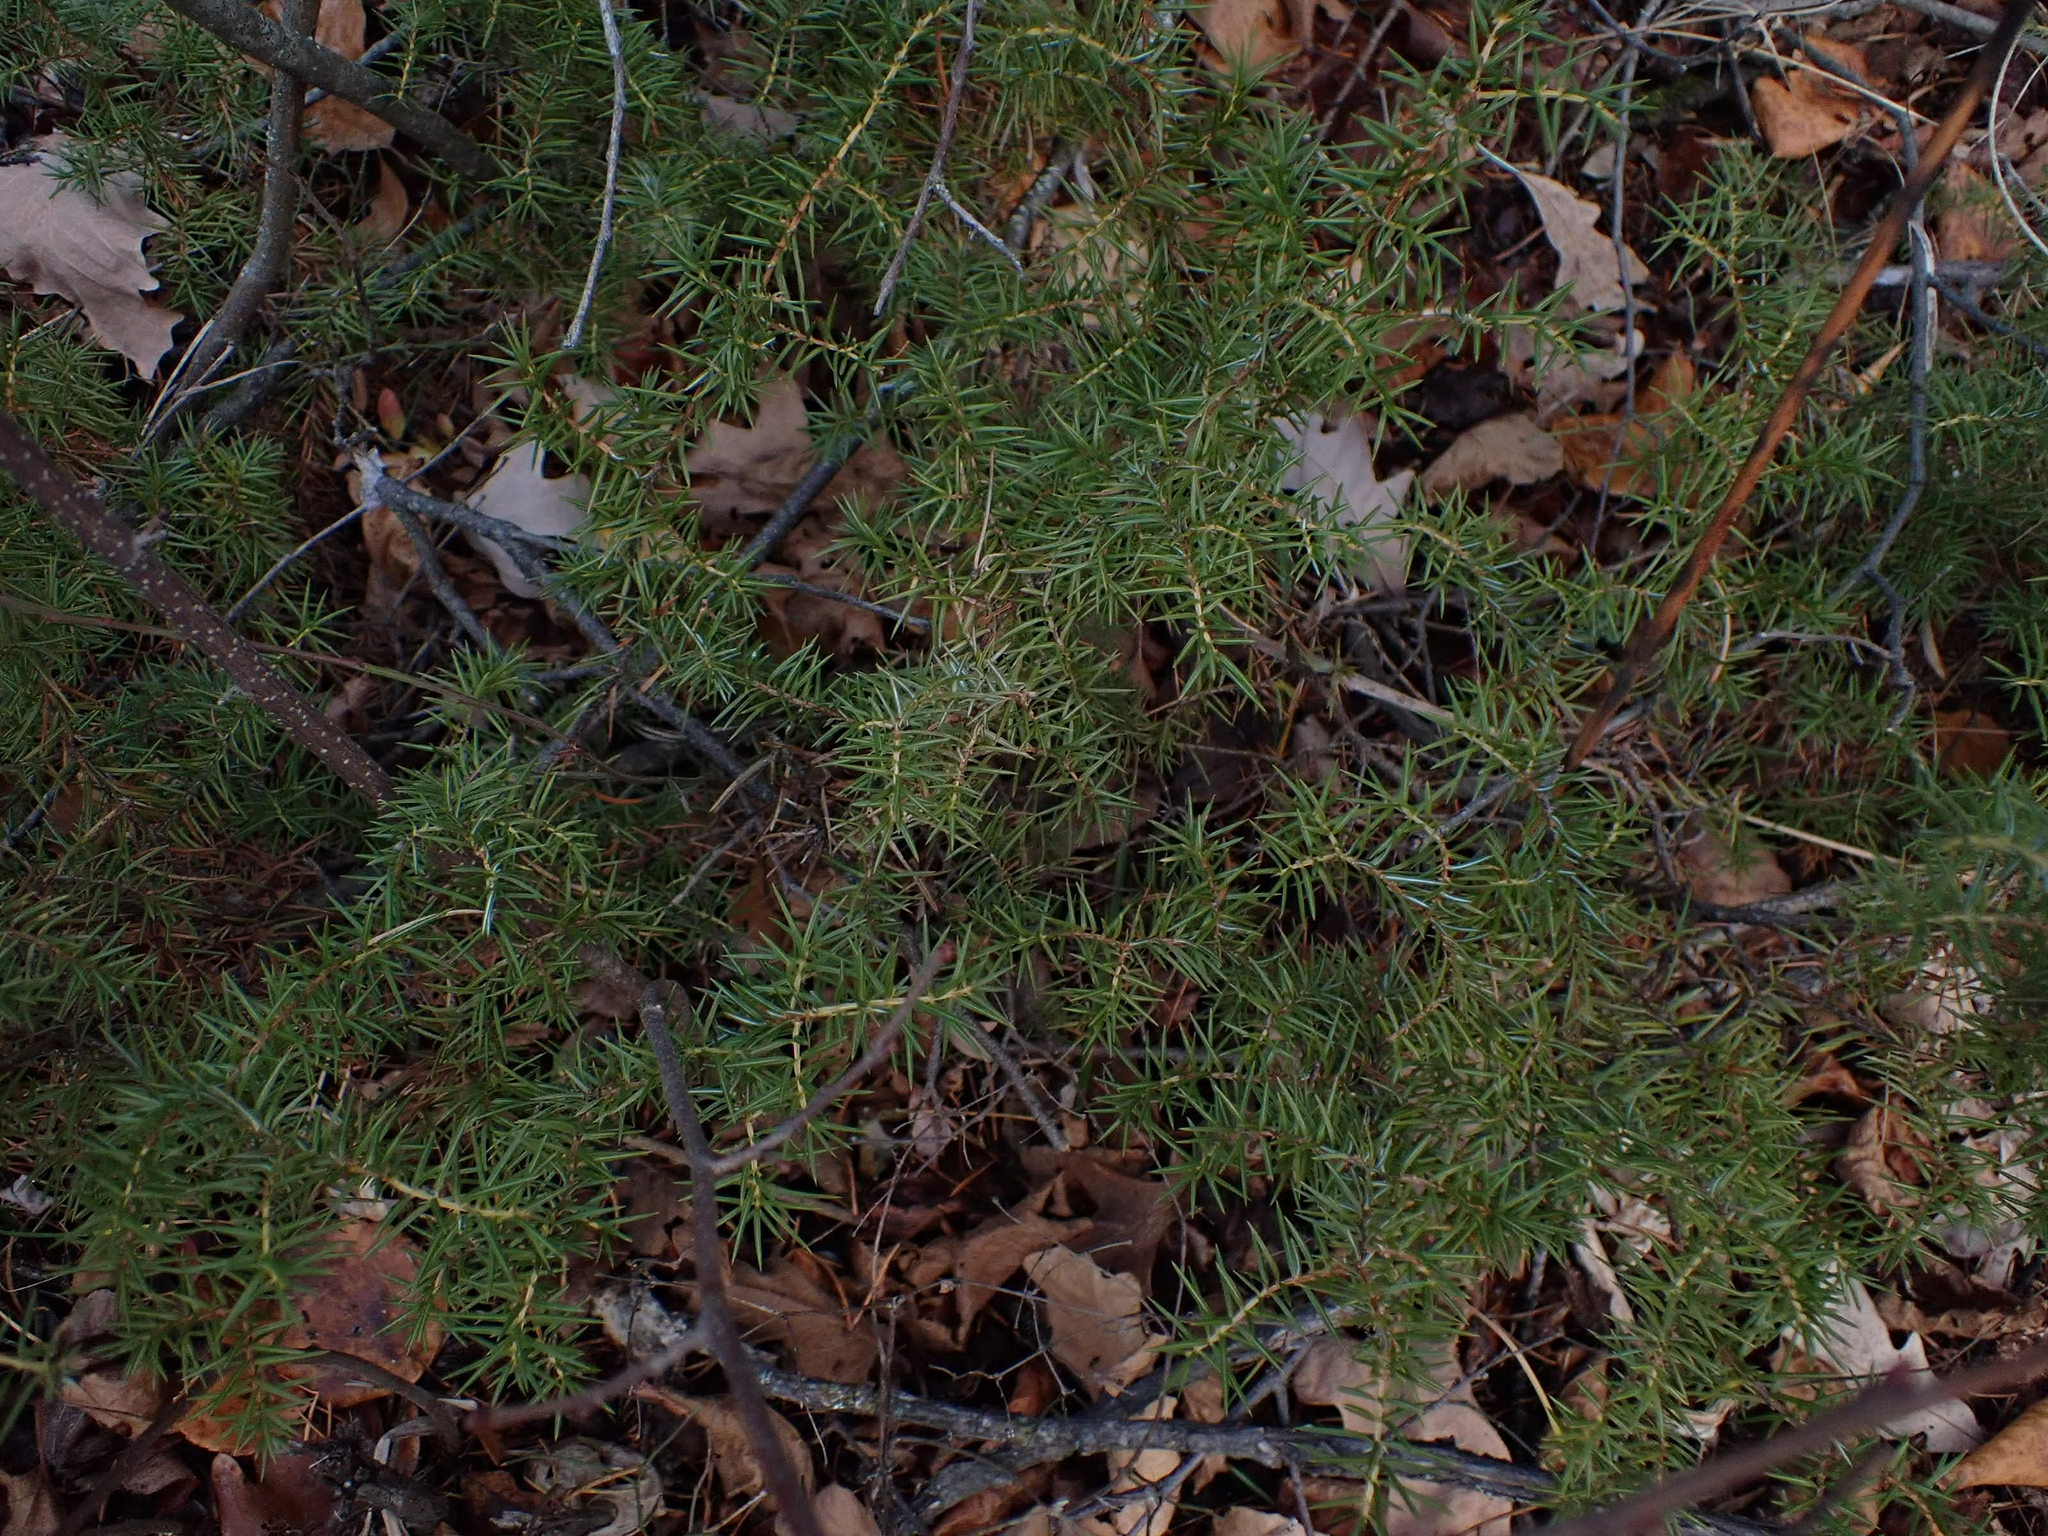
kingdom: Plantae
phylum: Tracheophyta
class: Pinopsida
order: Pinales
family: Cupressaceae
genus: Juniperus
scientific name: Juniperus communis
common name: Common juniper
